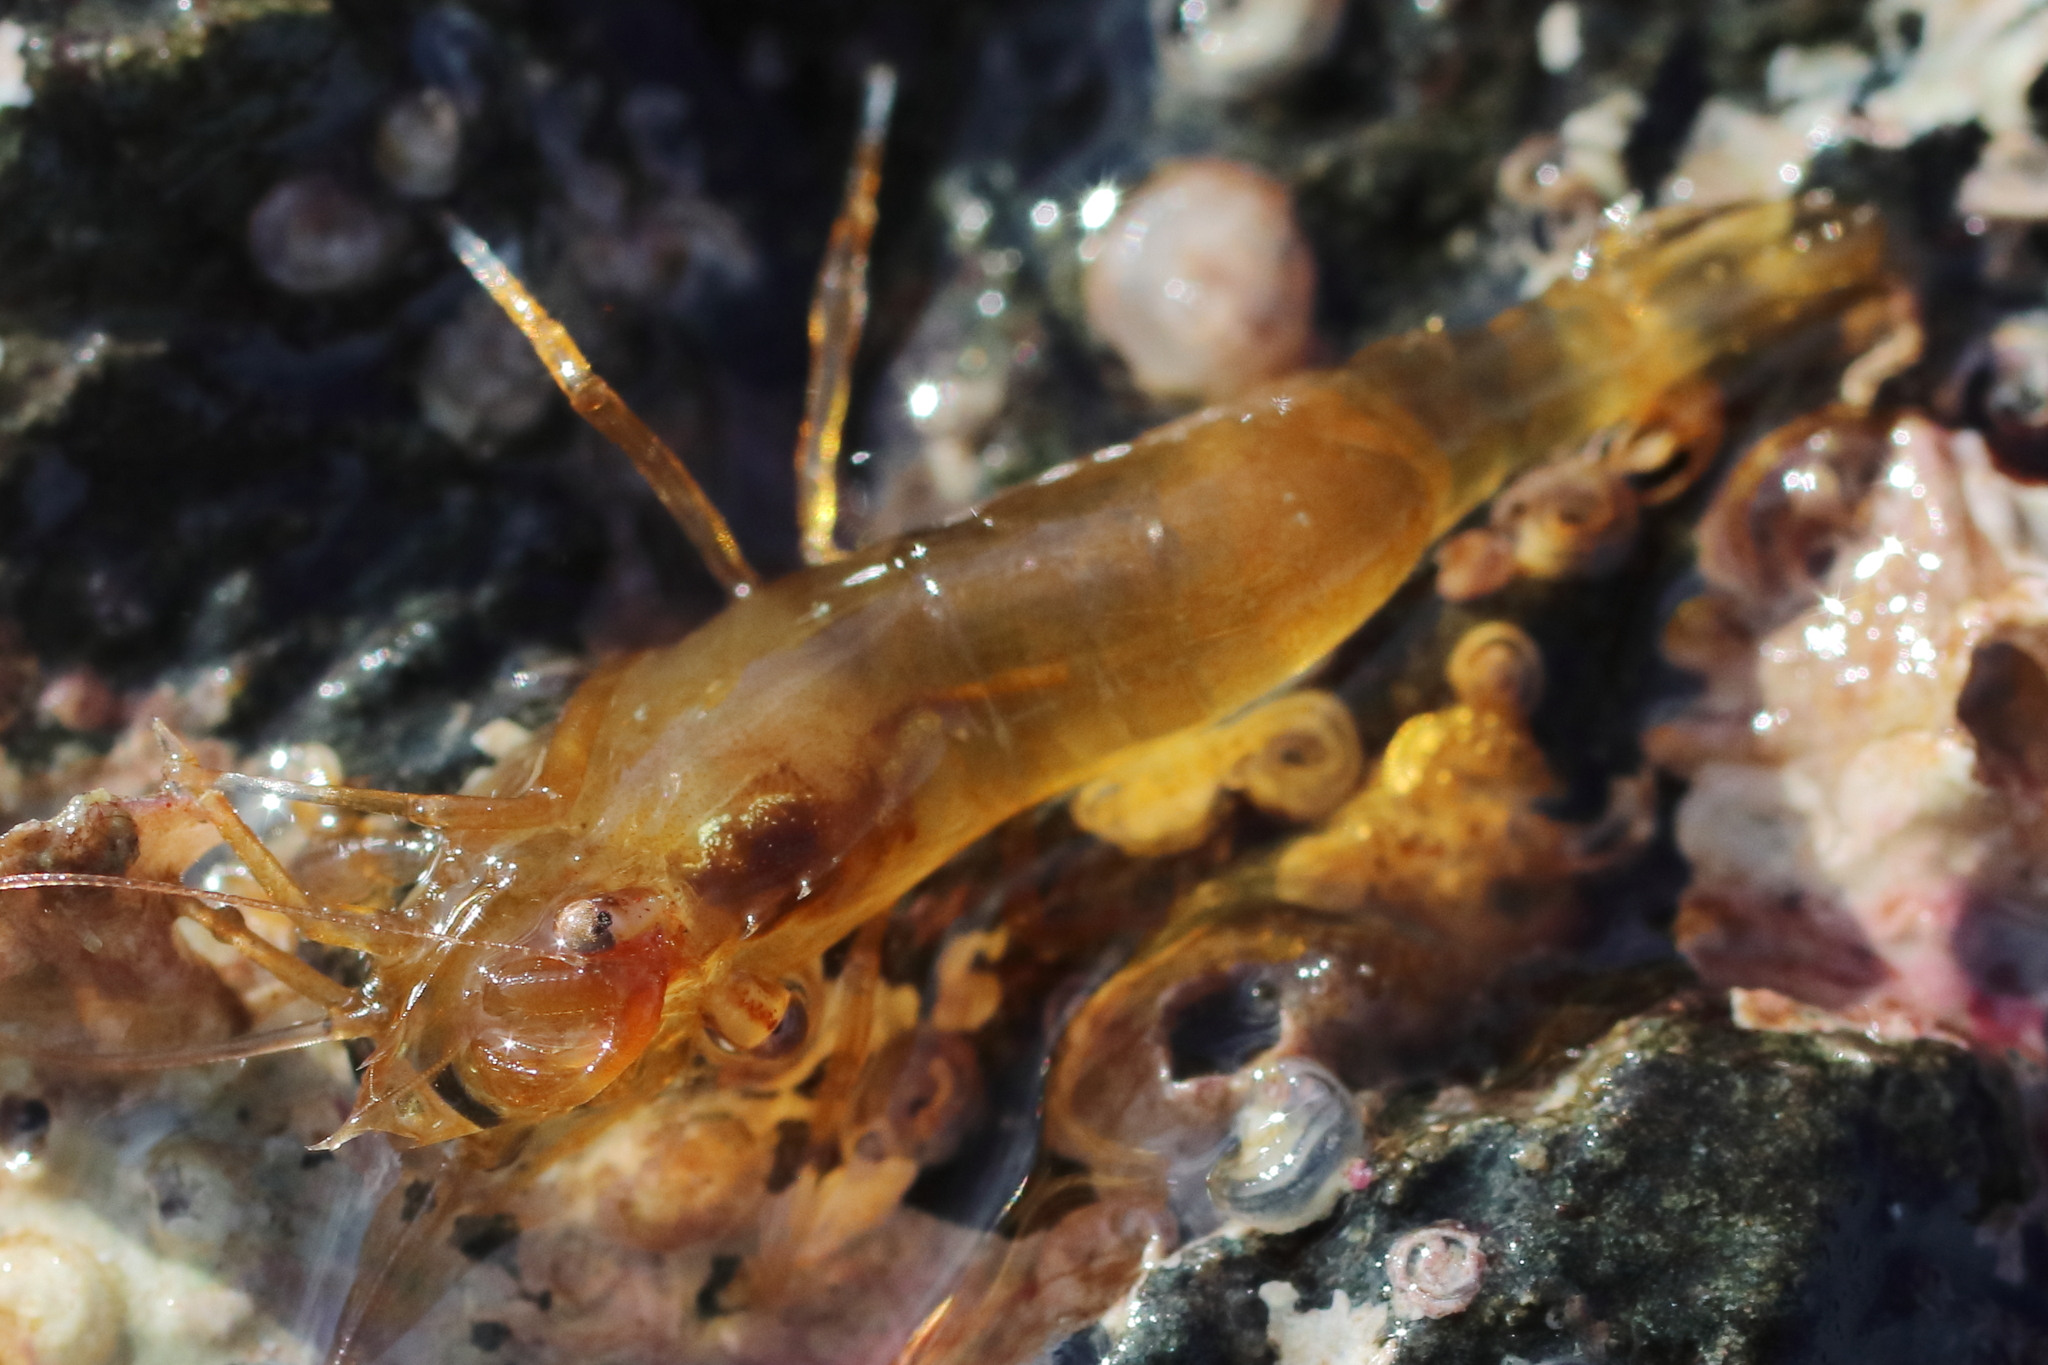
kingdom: Animalia
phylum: Arthropoda
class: Malacostraca
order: Decapoda
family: Thoridae
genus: Heptacarpus
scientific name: Heptacarpus brevirostris
